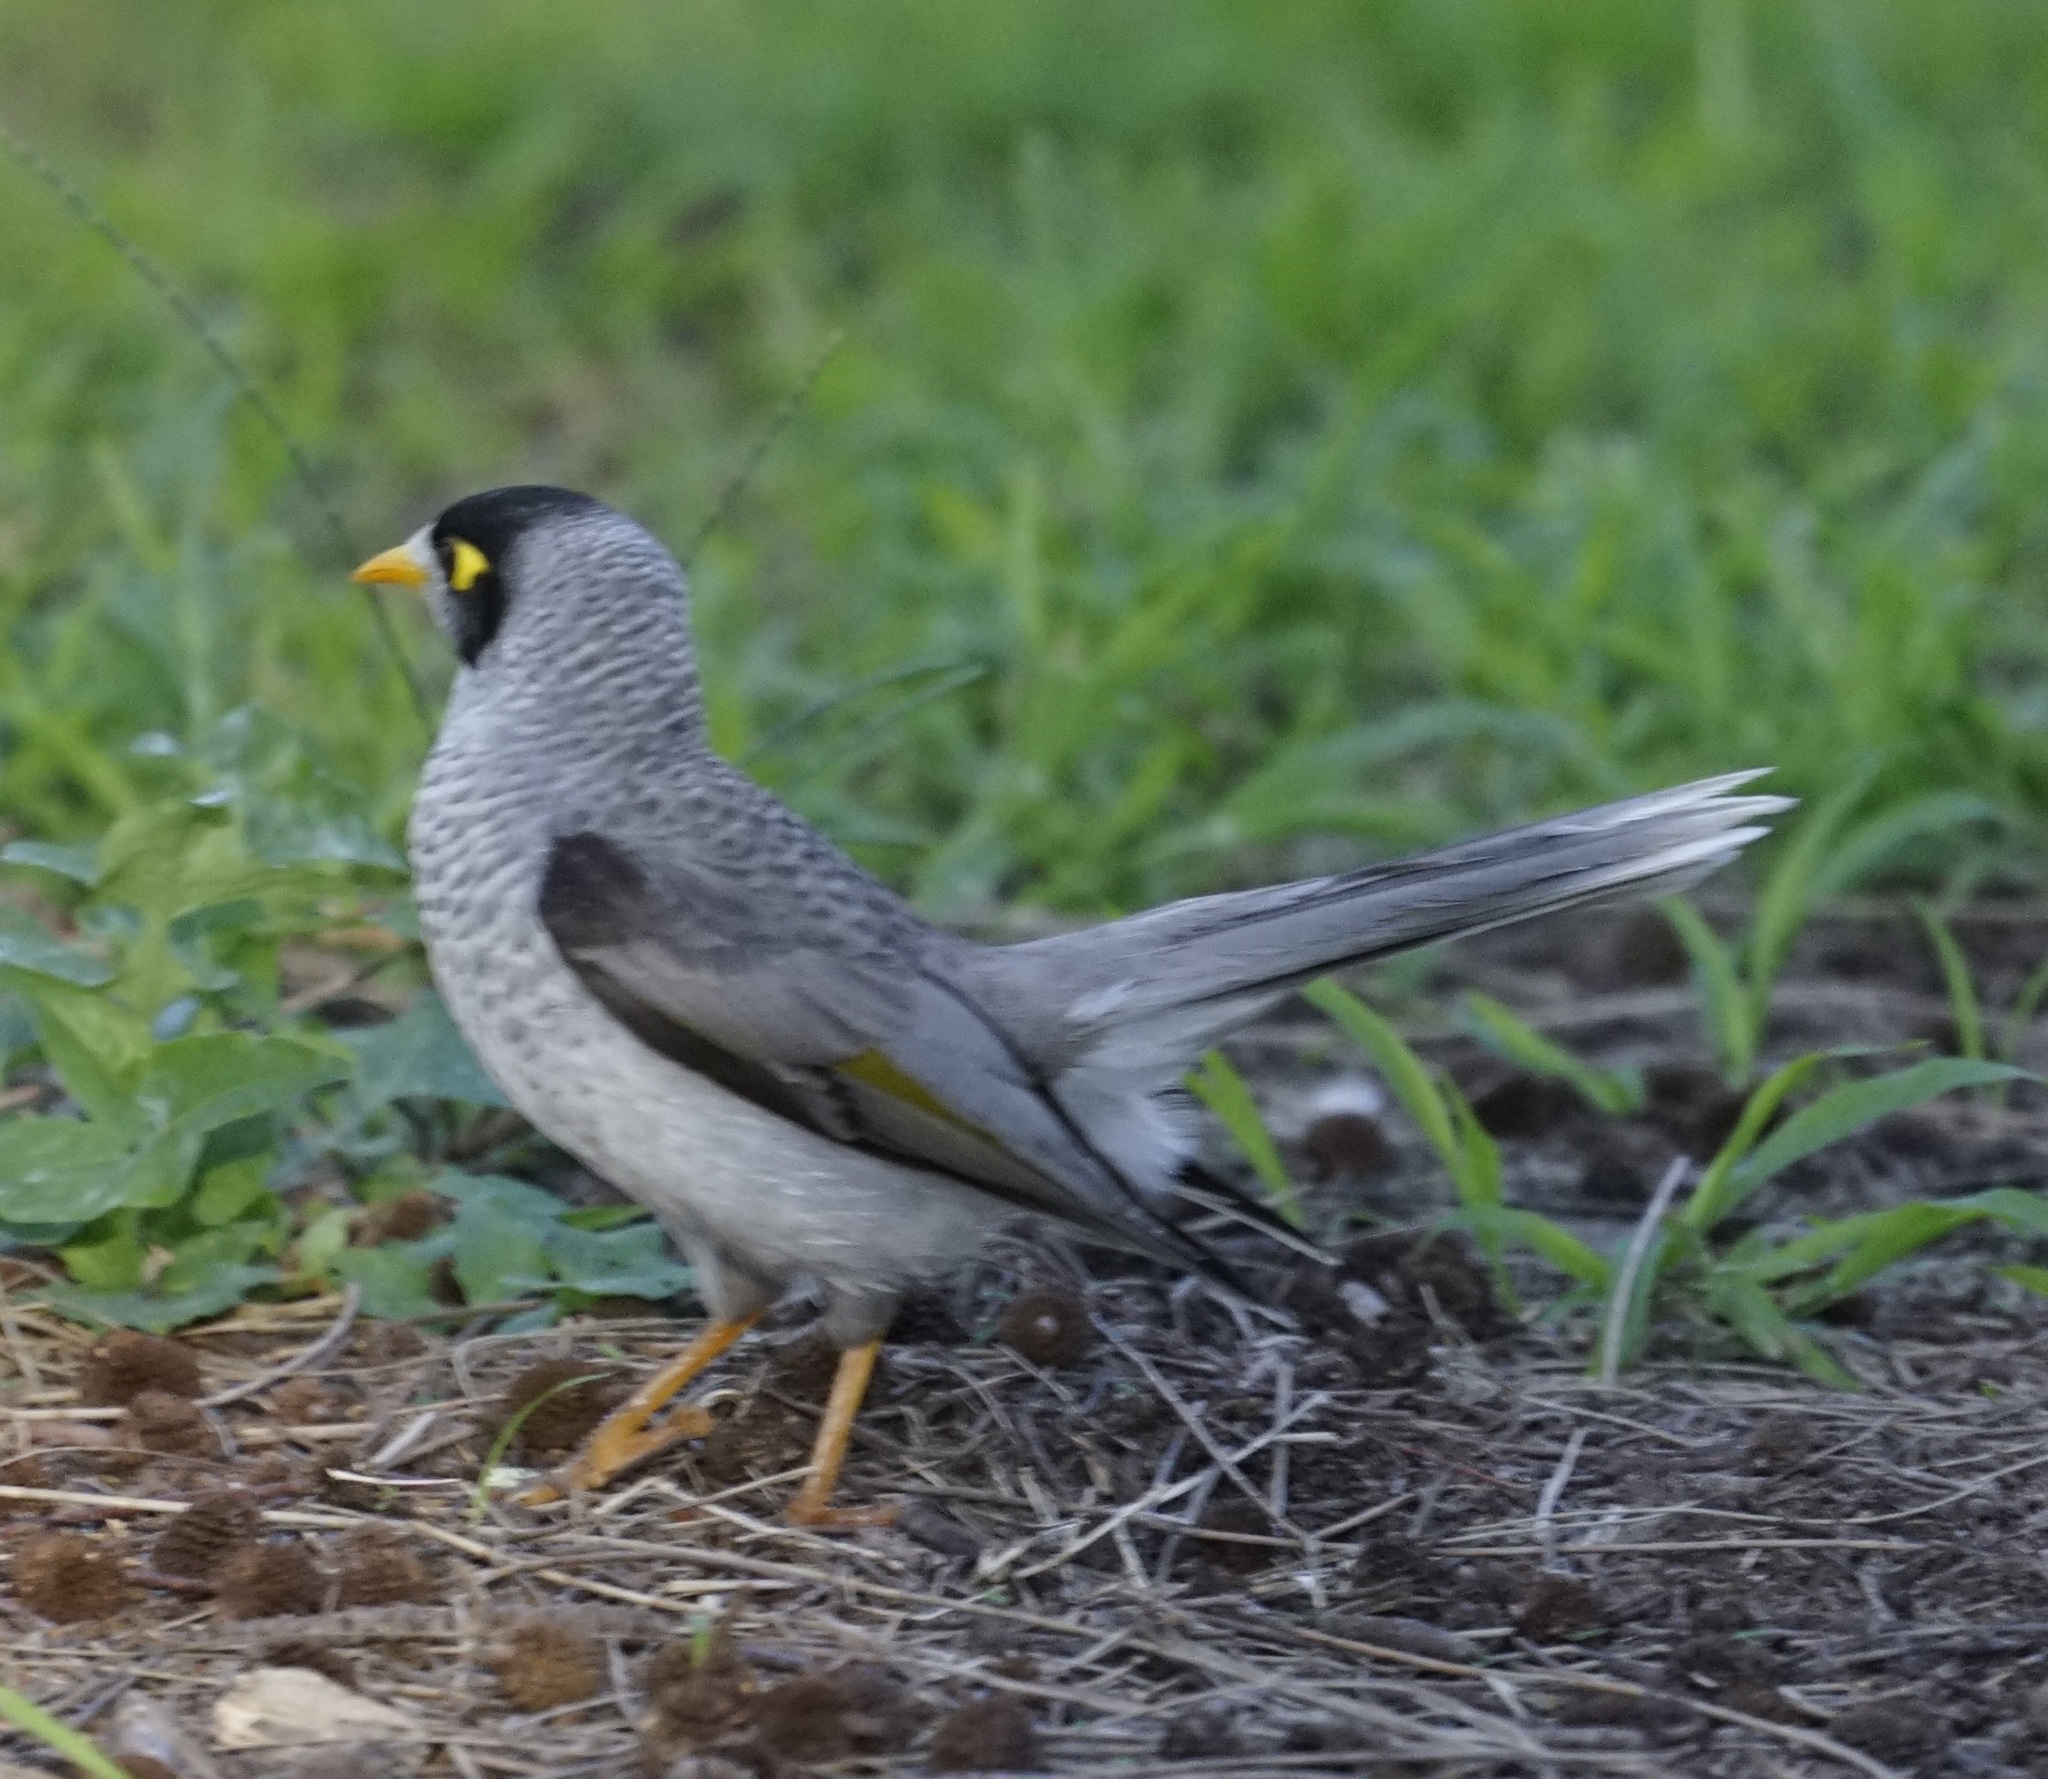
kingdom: Animalia
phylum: Chordata
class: Aves
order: Passeriformes
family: Meliphagidae
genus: Manorina
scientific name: Manorina melanocephala
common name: Noisy miner
